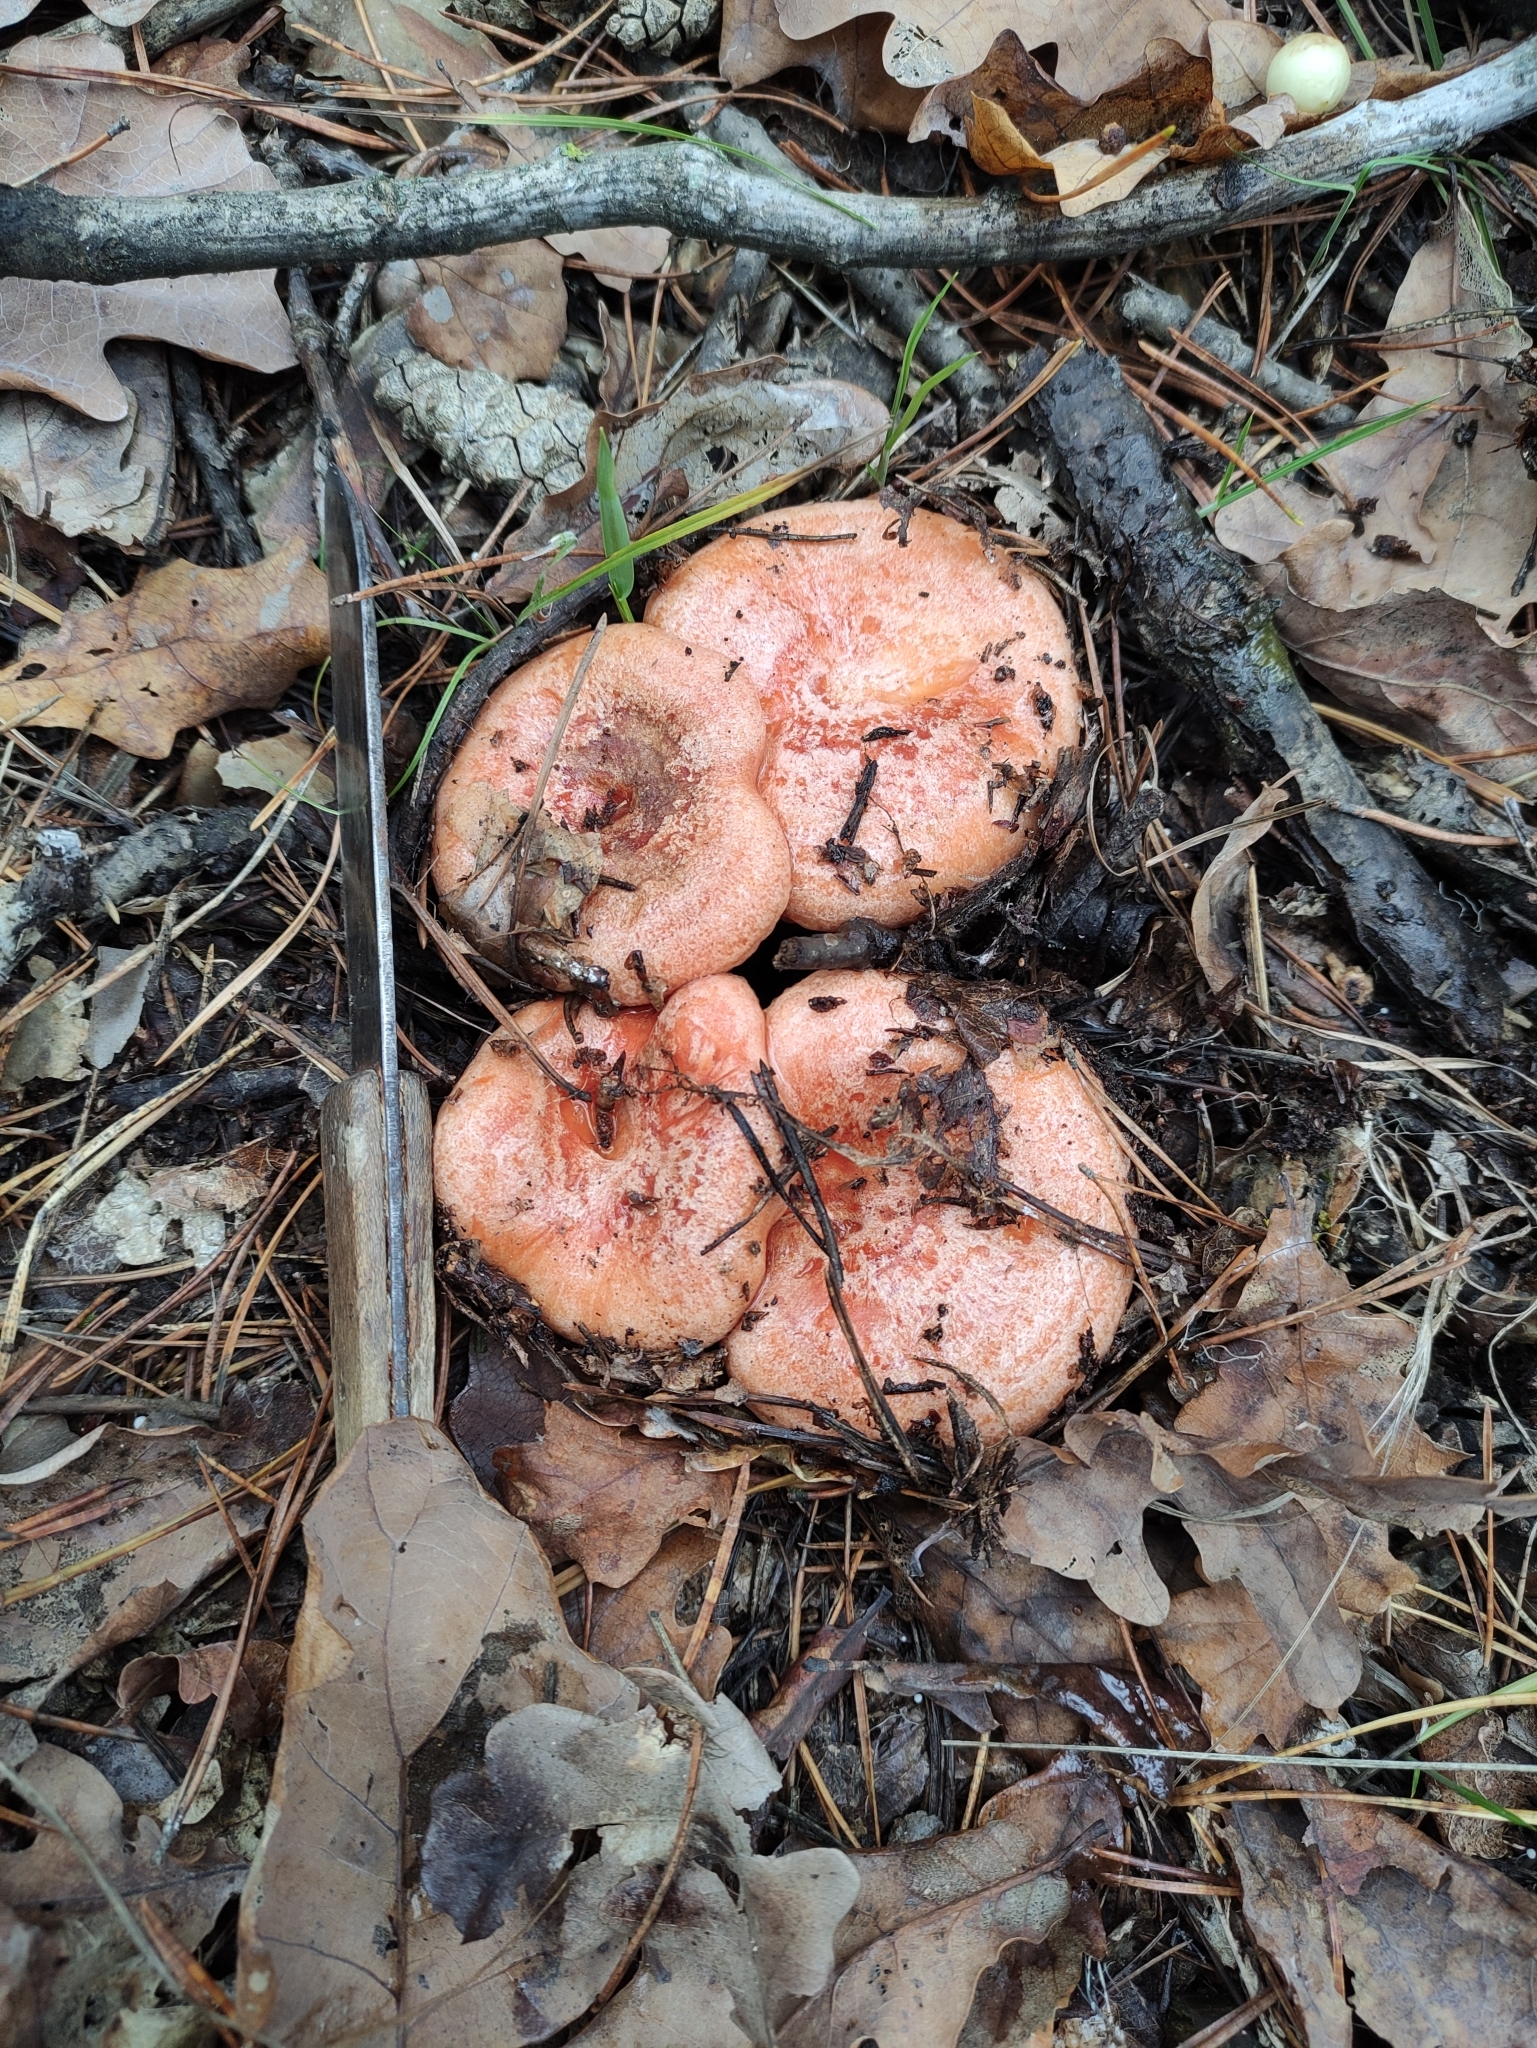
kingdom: Fungi
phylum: Basidiomycota
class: Agaricomycetes
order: Russulales
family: Russulaceae
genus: Lactarius
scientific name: Lactarius deliciosus
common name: Saffron milk-cap
